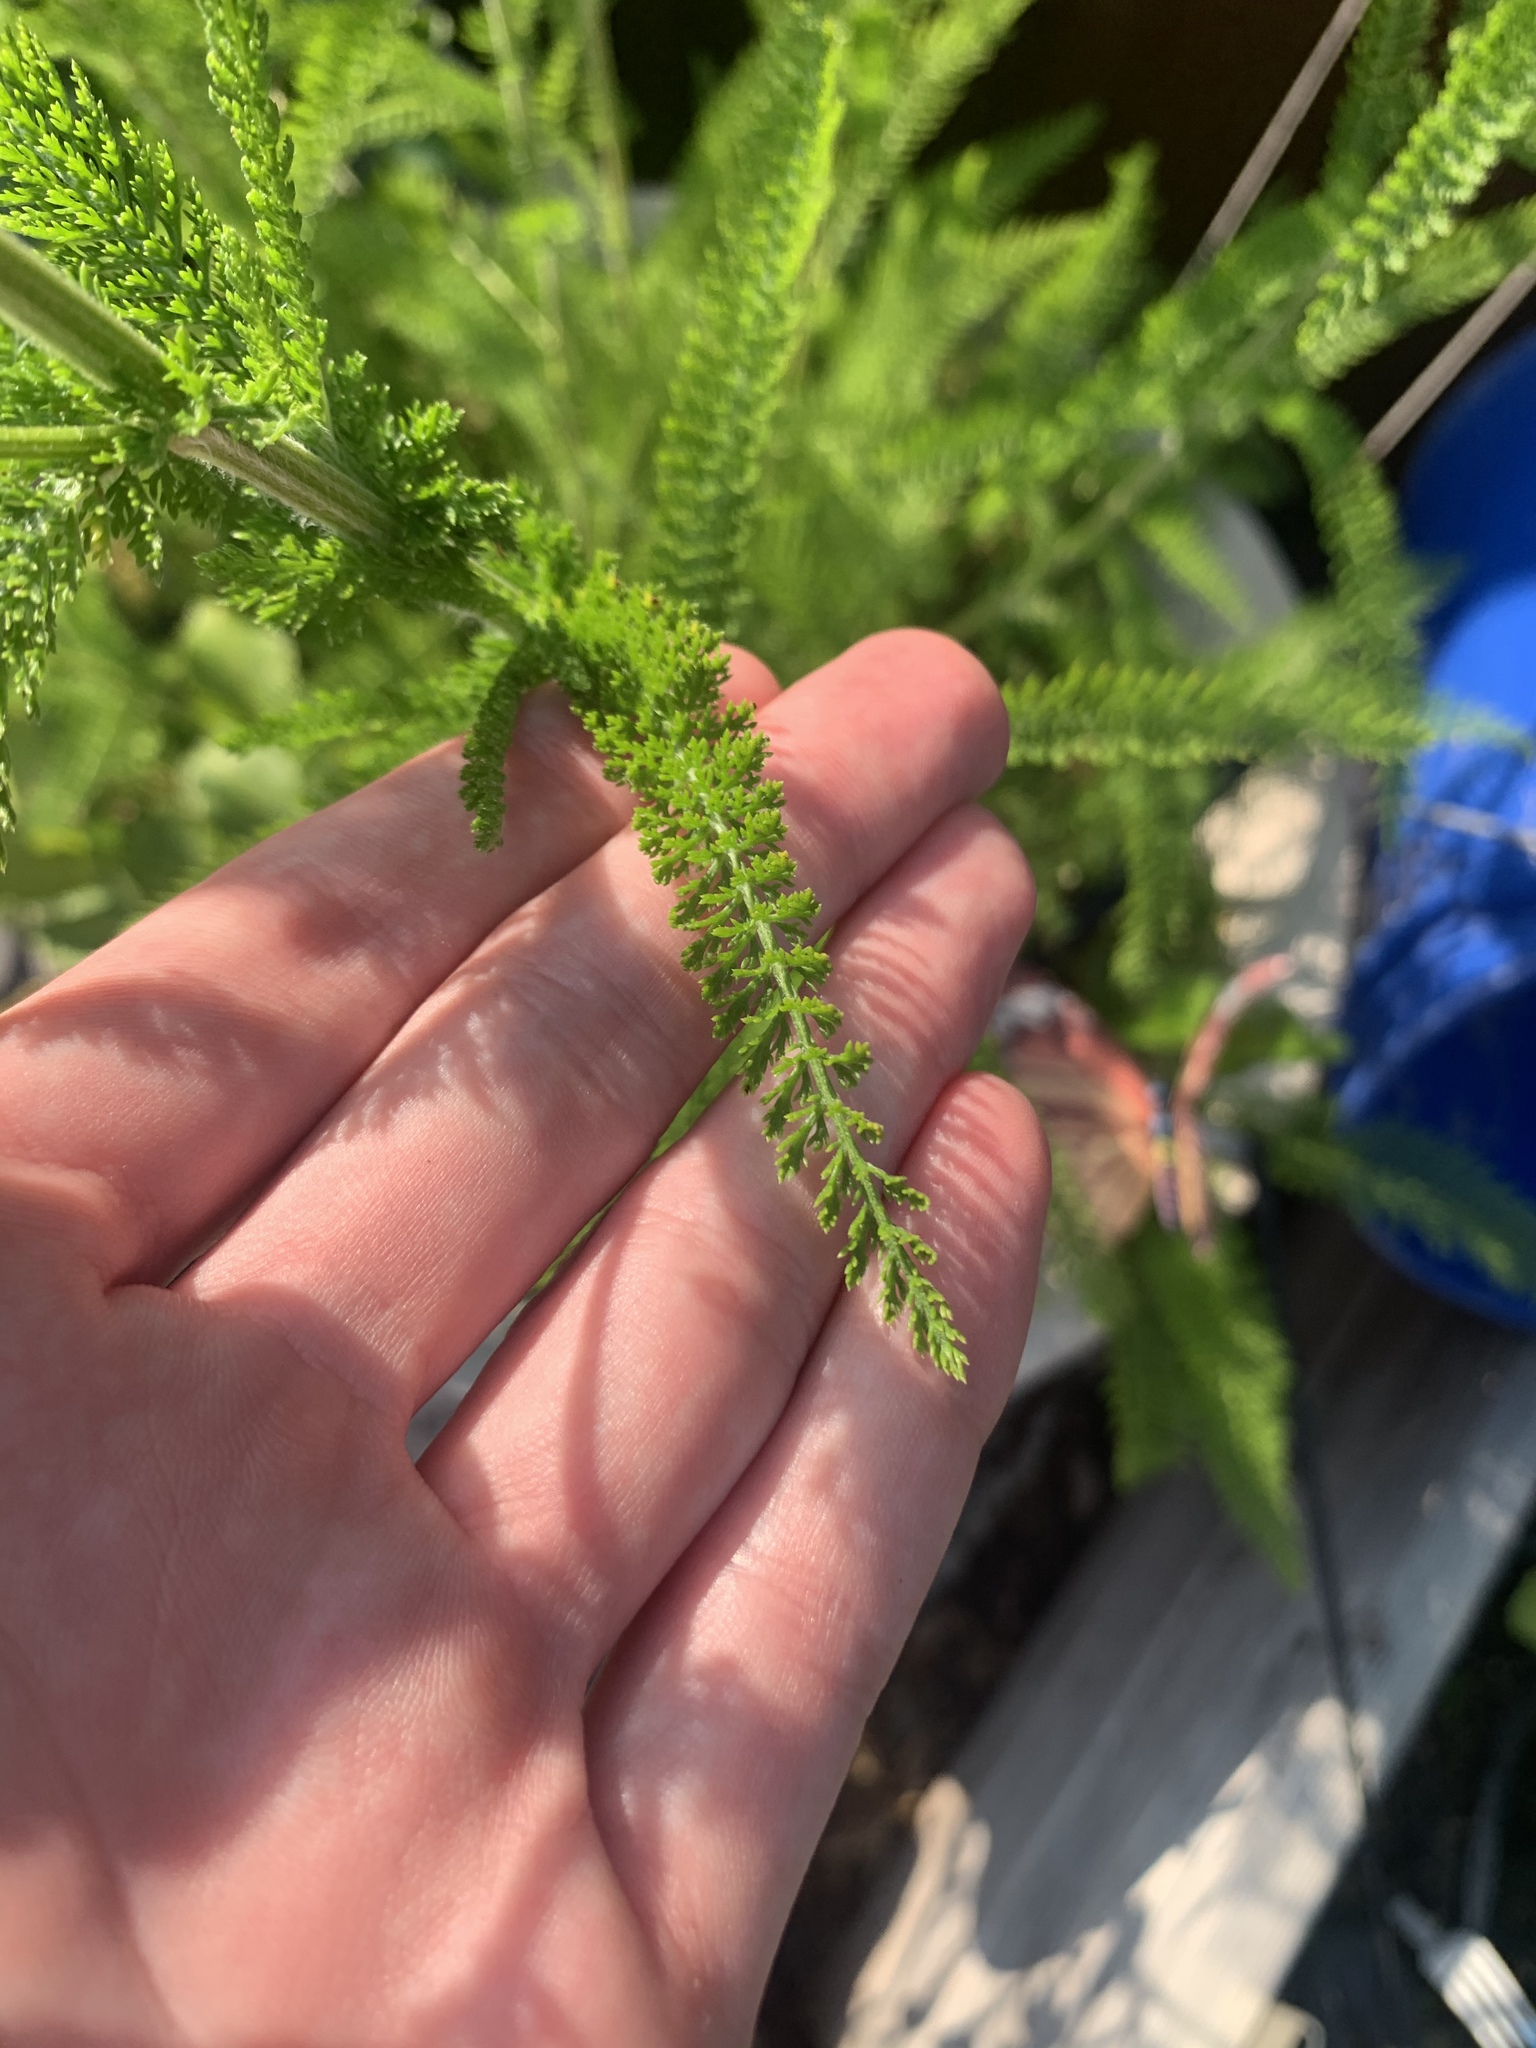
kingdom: Plantae
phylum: Tracheophyta
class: Magnoliopsida
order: Asterales
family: Asteraceae
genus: Achillea
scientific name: Achillea millefolium
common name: Yarrow
